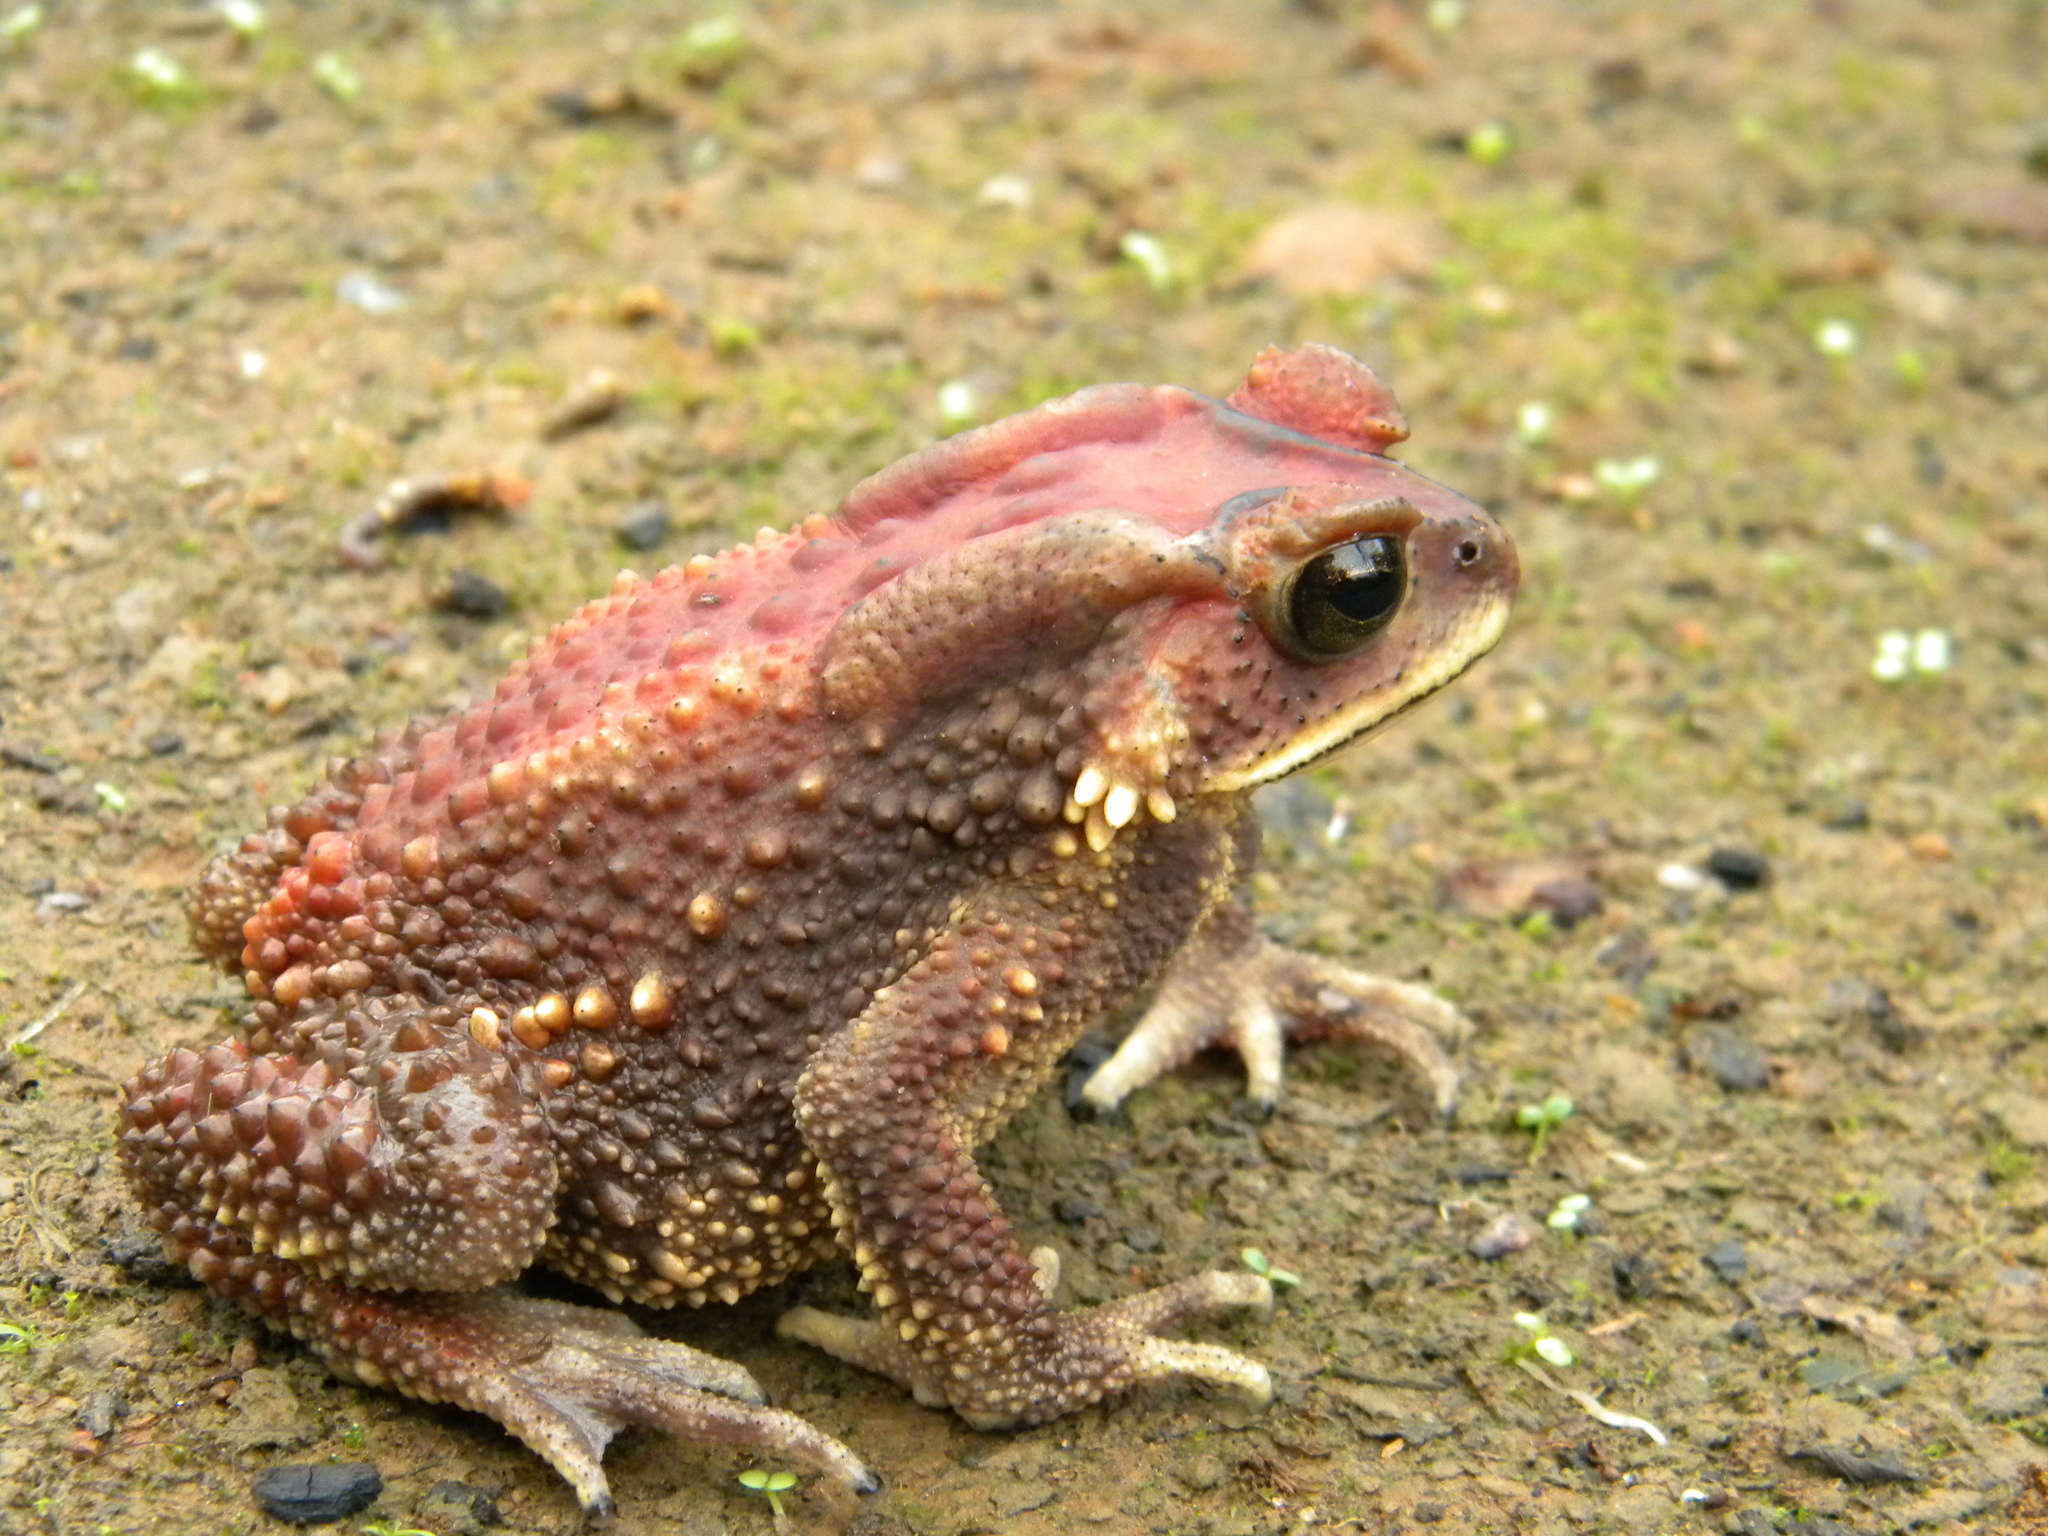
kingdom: Animalia
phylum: Chordata
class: Amphibia
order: Anura
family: Bufonidae
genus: Duttaphrynus
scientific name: Duttaphrynus microtympanum
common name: Small-eared toad
